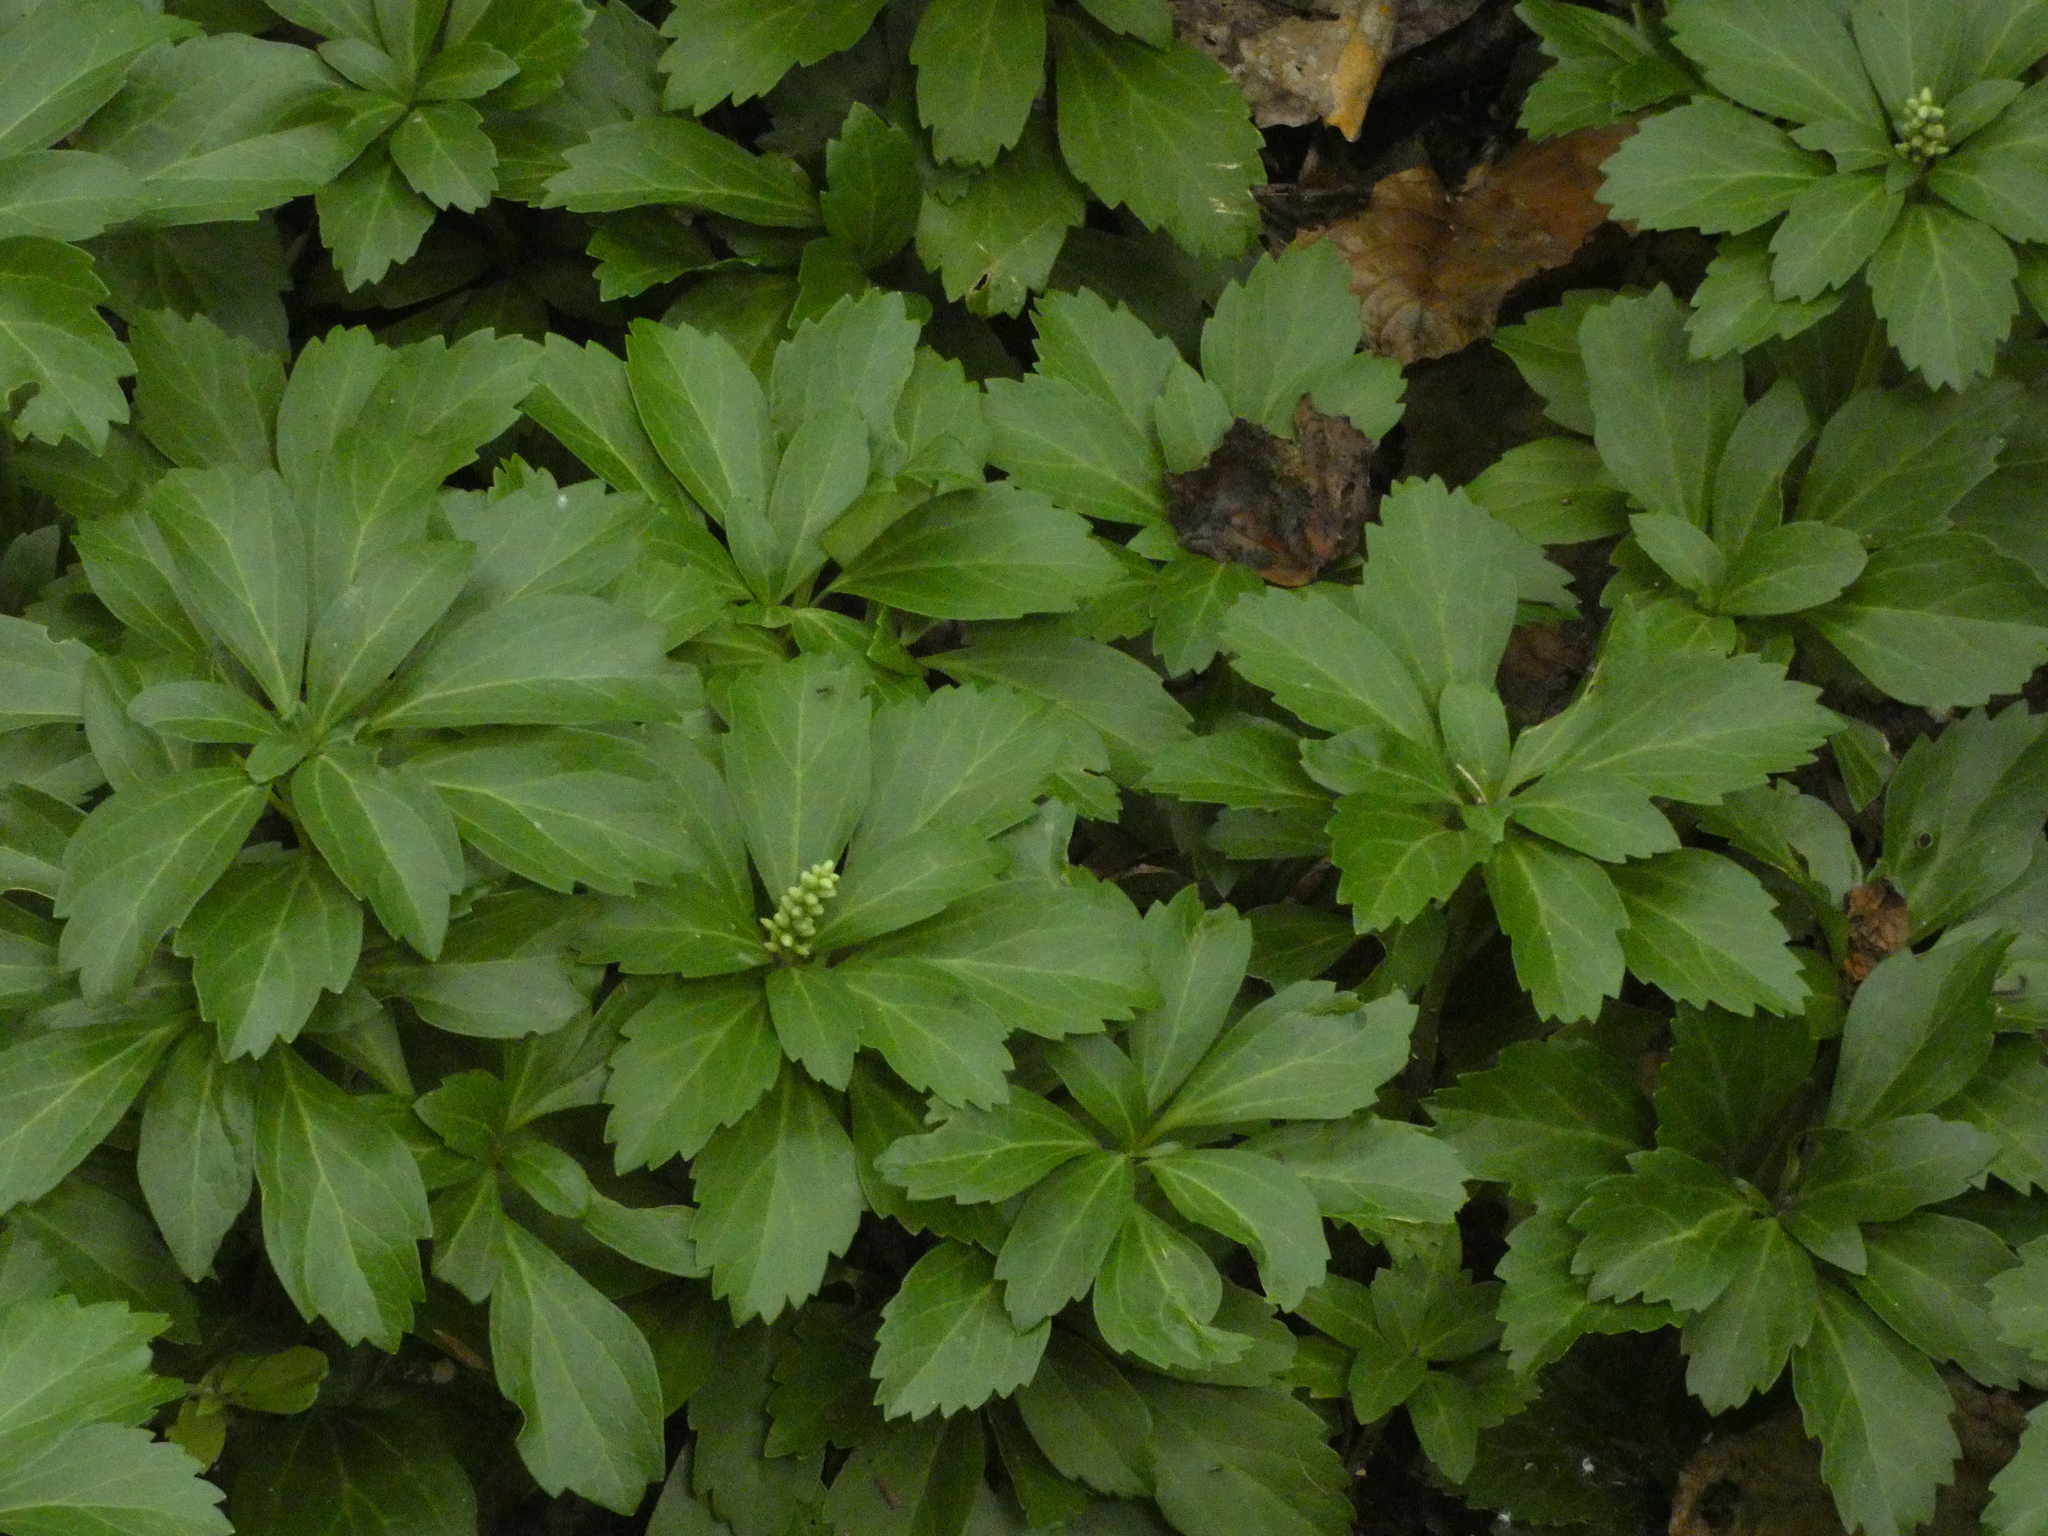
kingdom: Plantae
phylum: Tracheophyta
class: Magnoliopsida
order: Buxales
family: Buxaceae
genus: Pachysandra
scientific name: Pachysandra terminalis
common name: Japanese pachysandra
